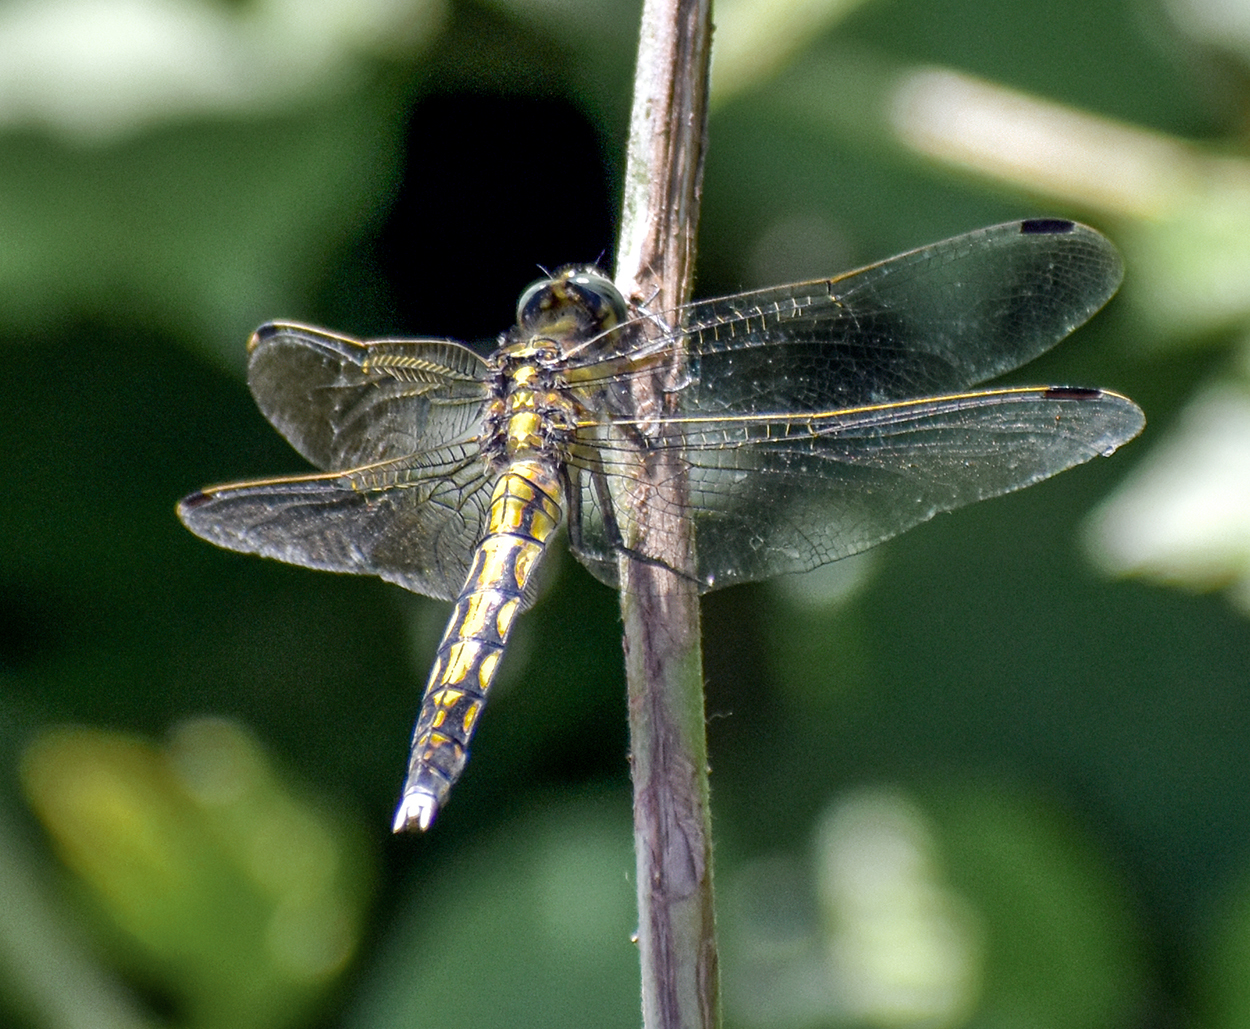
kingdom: Animalia
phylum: Arthropoda
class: Insecta
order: Odonata
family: Libellulidae
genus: Orthetrum
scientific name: Orthetrum albistylum
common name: White-tailed skimmer
